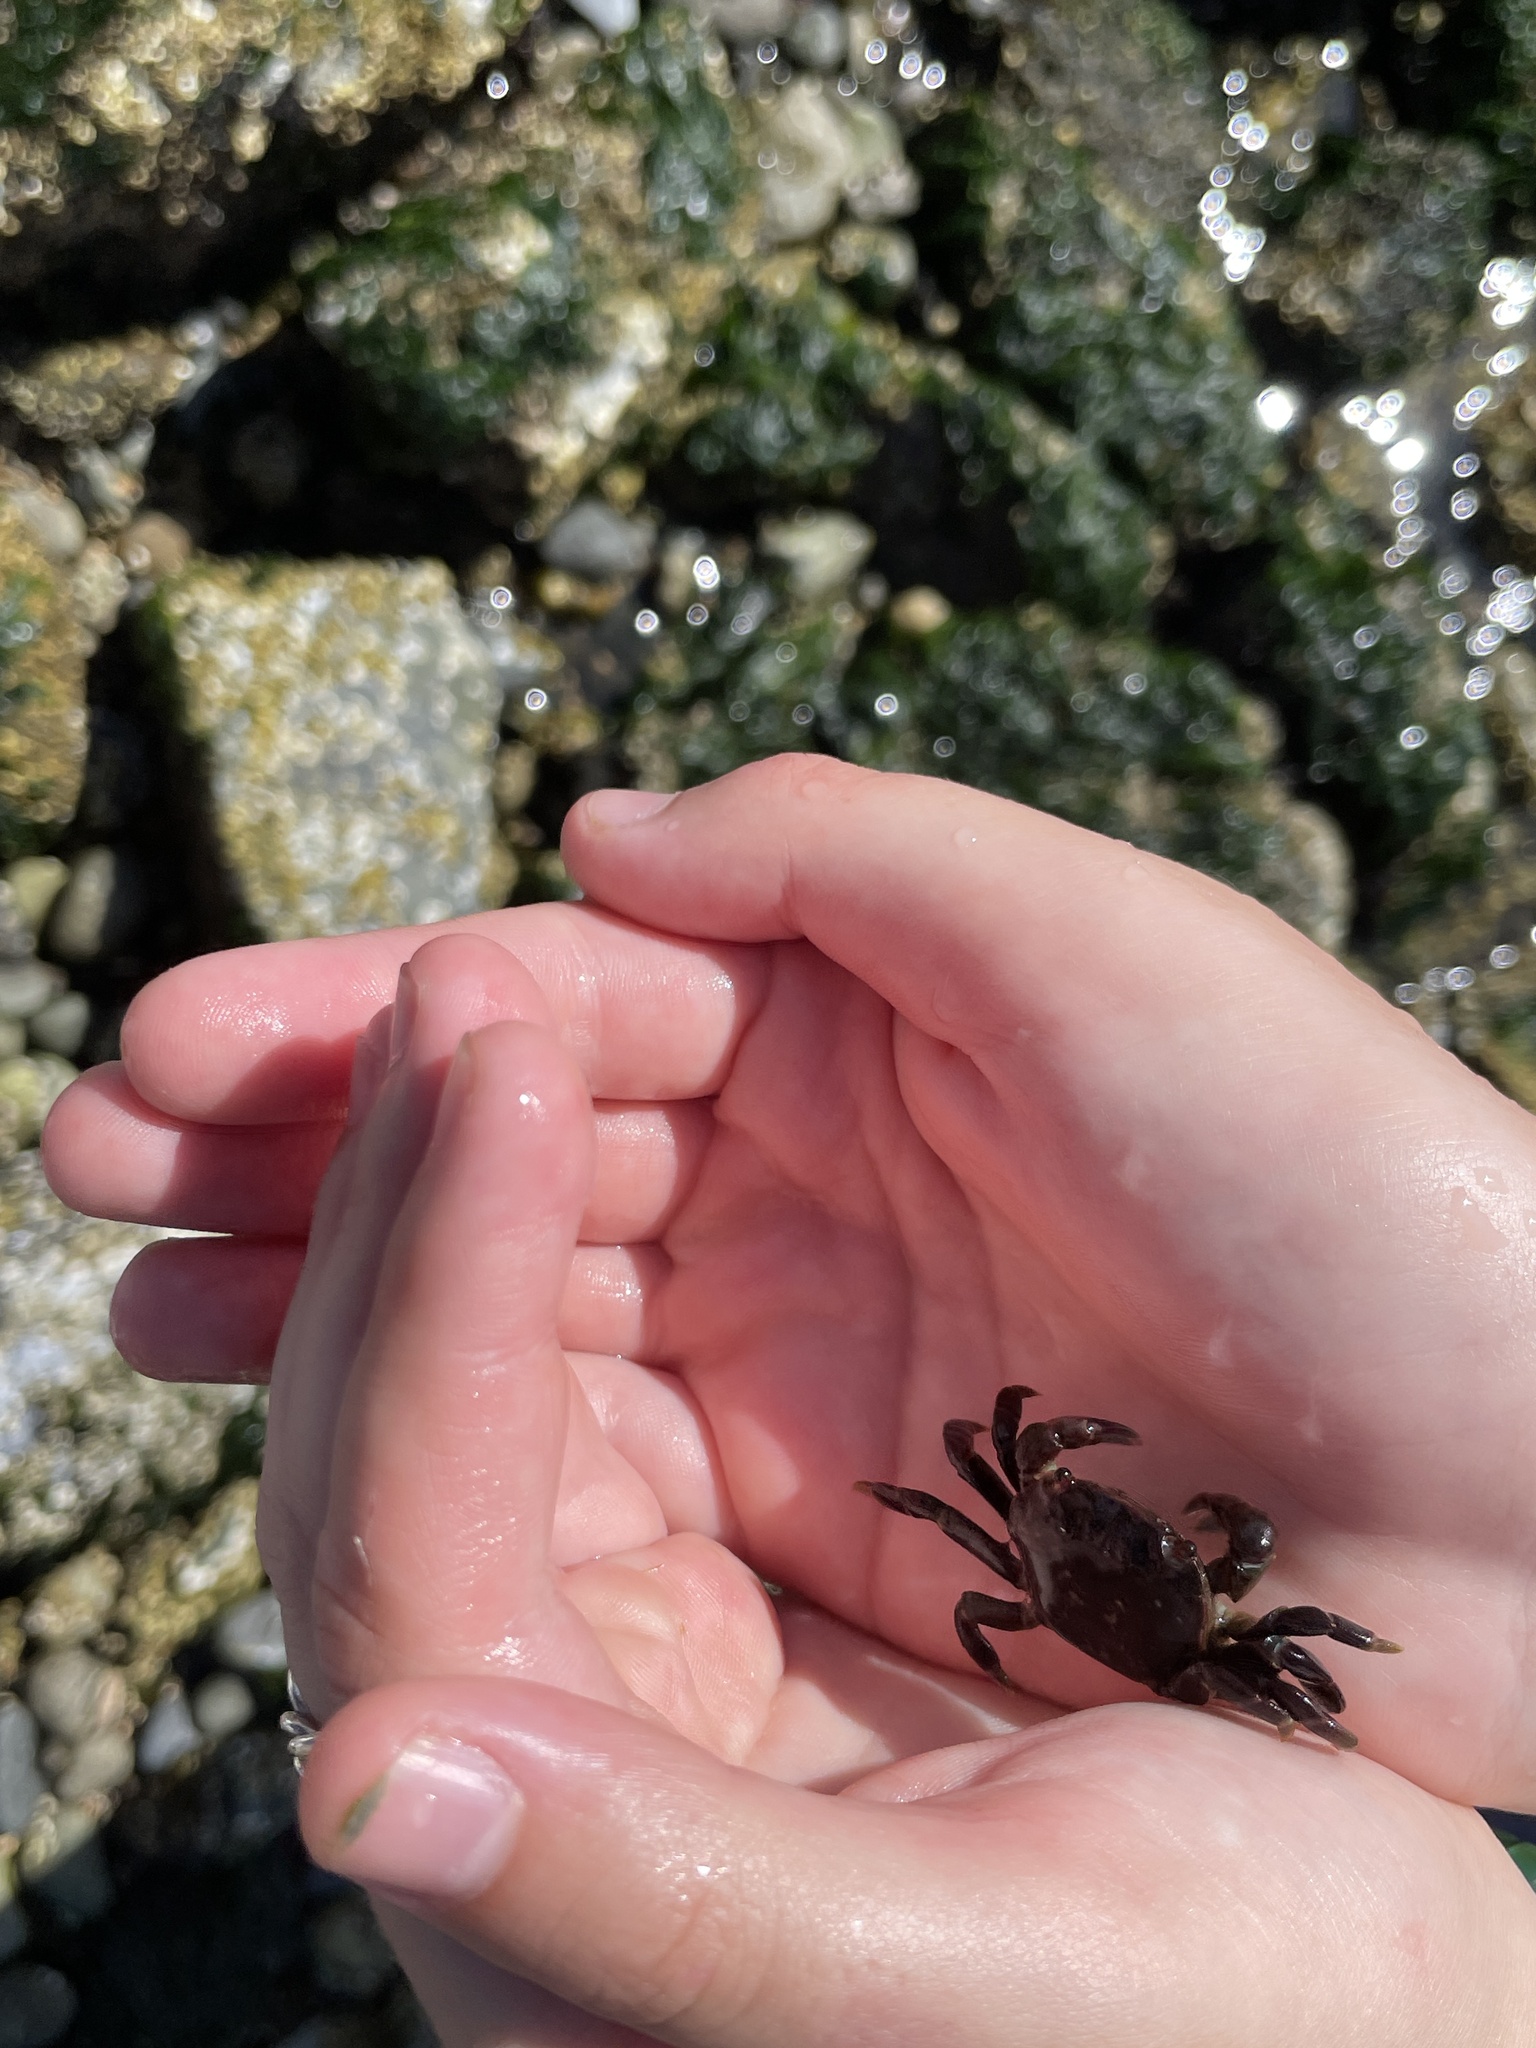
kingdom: Animalia
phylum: Arthropoda
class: Malacostraca
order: Decapoda
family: Varunidae
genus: Hemigrapsus
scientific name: Hemigrapsus nudus
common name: Purple shore crab
